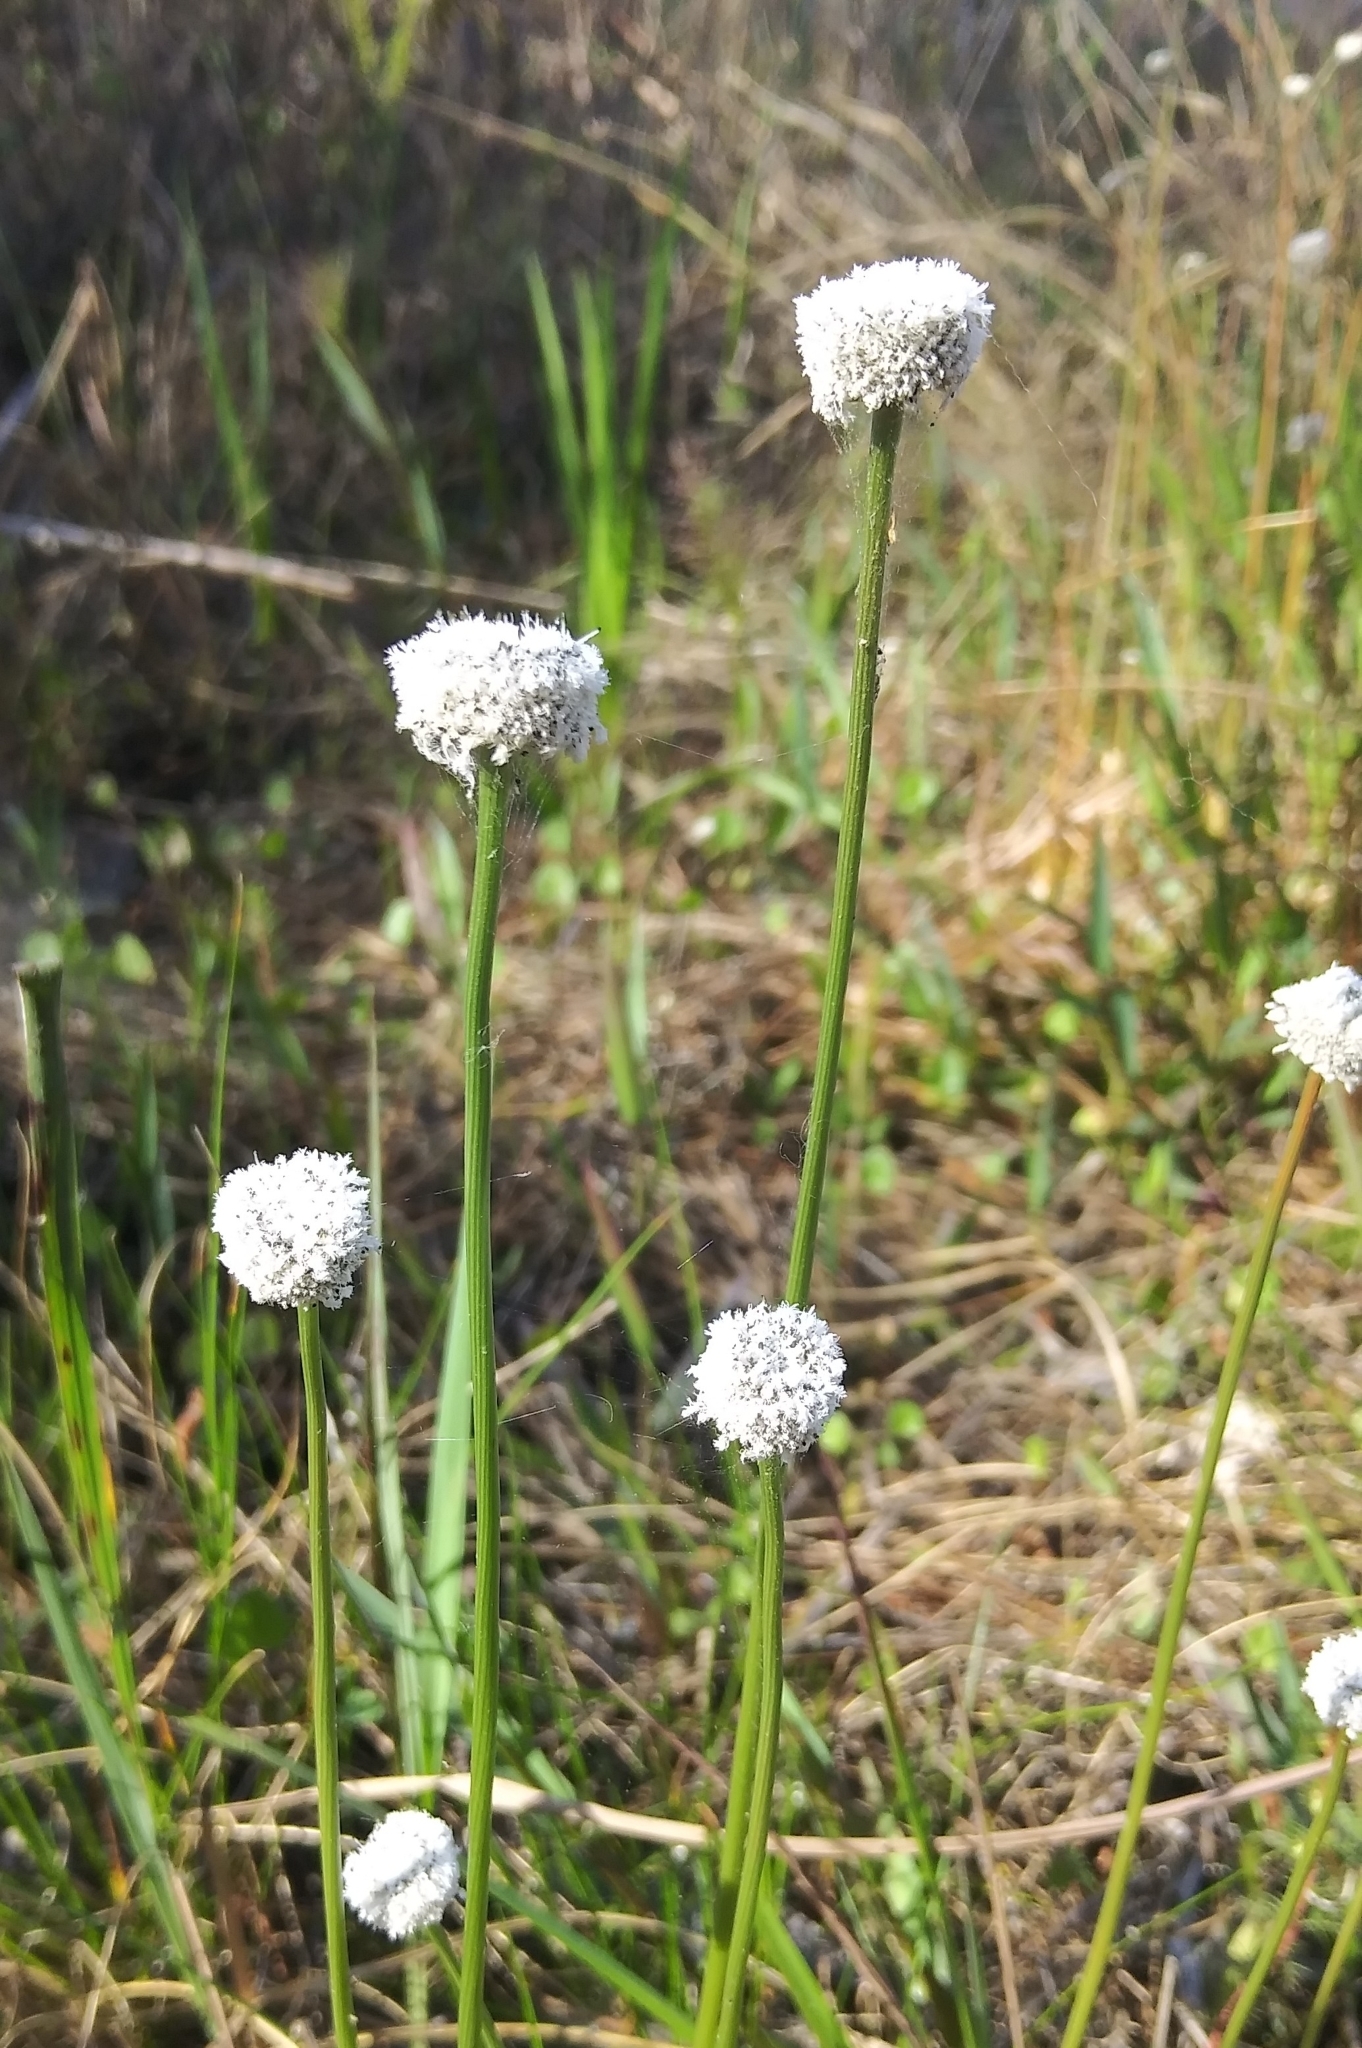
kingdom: Plantae
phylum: Tracheophyta
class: Liliopsida
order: Poales
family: Eriocaulaceae
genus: Eriocaulon
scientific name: Eriocaulon compressum
